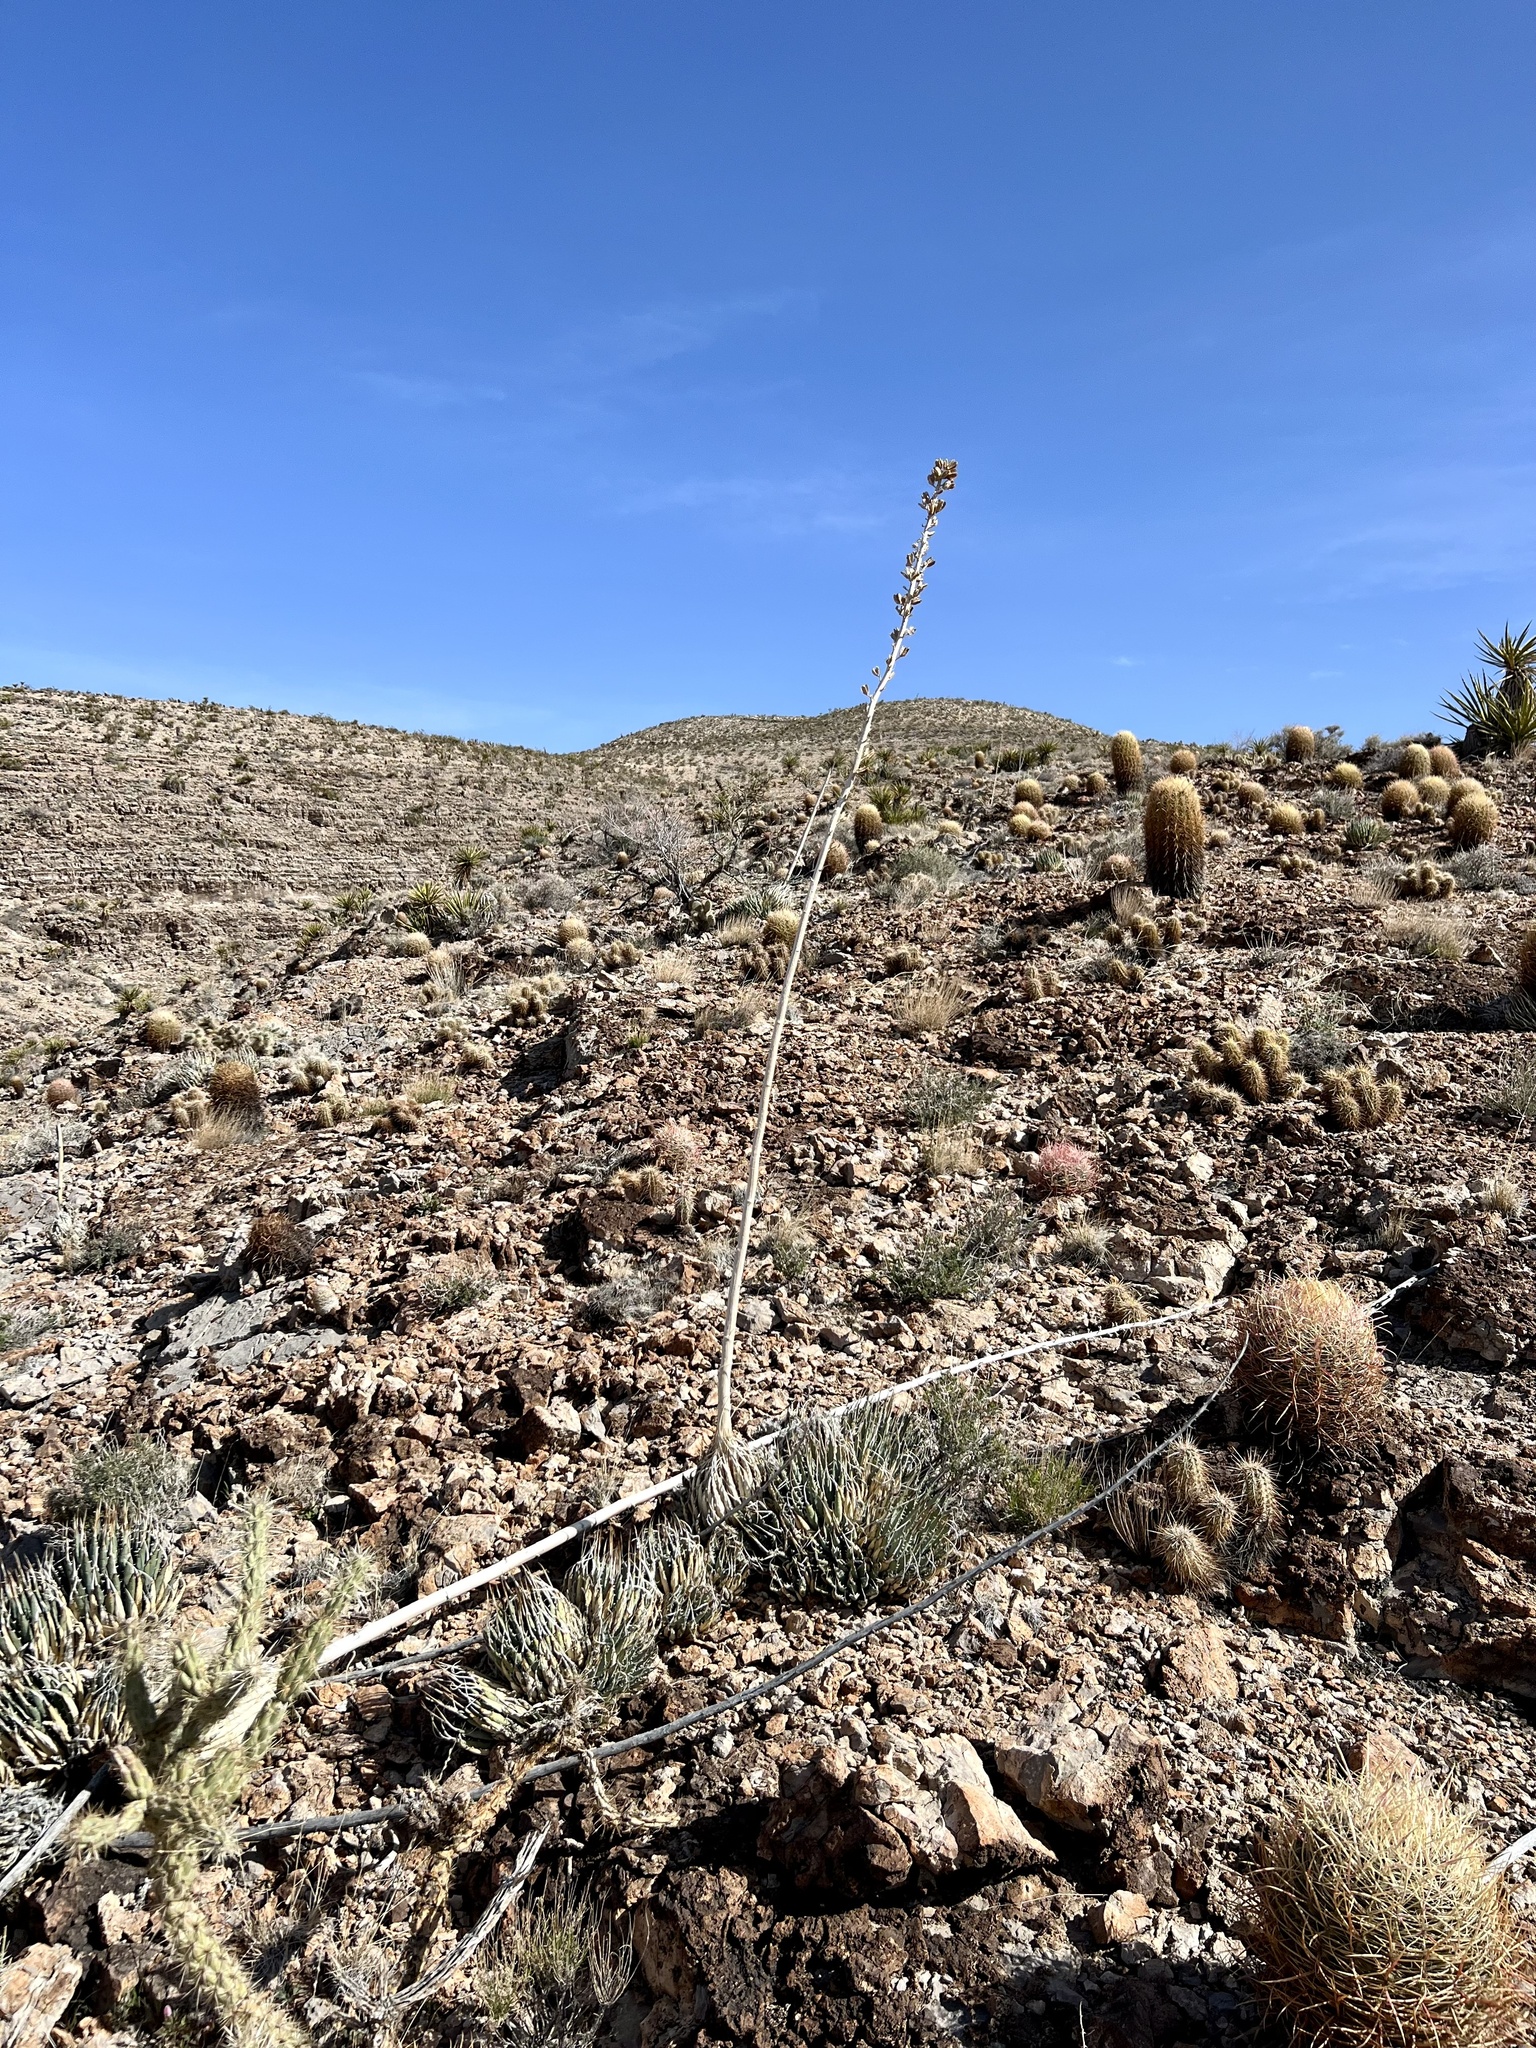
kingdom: Plantae
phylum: Tracheophyta
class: Liliopsida
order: Asparagales
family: Asparagaceae
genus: Agave
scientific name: Agave utahensis
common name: Utah agave
